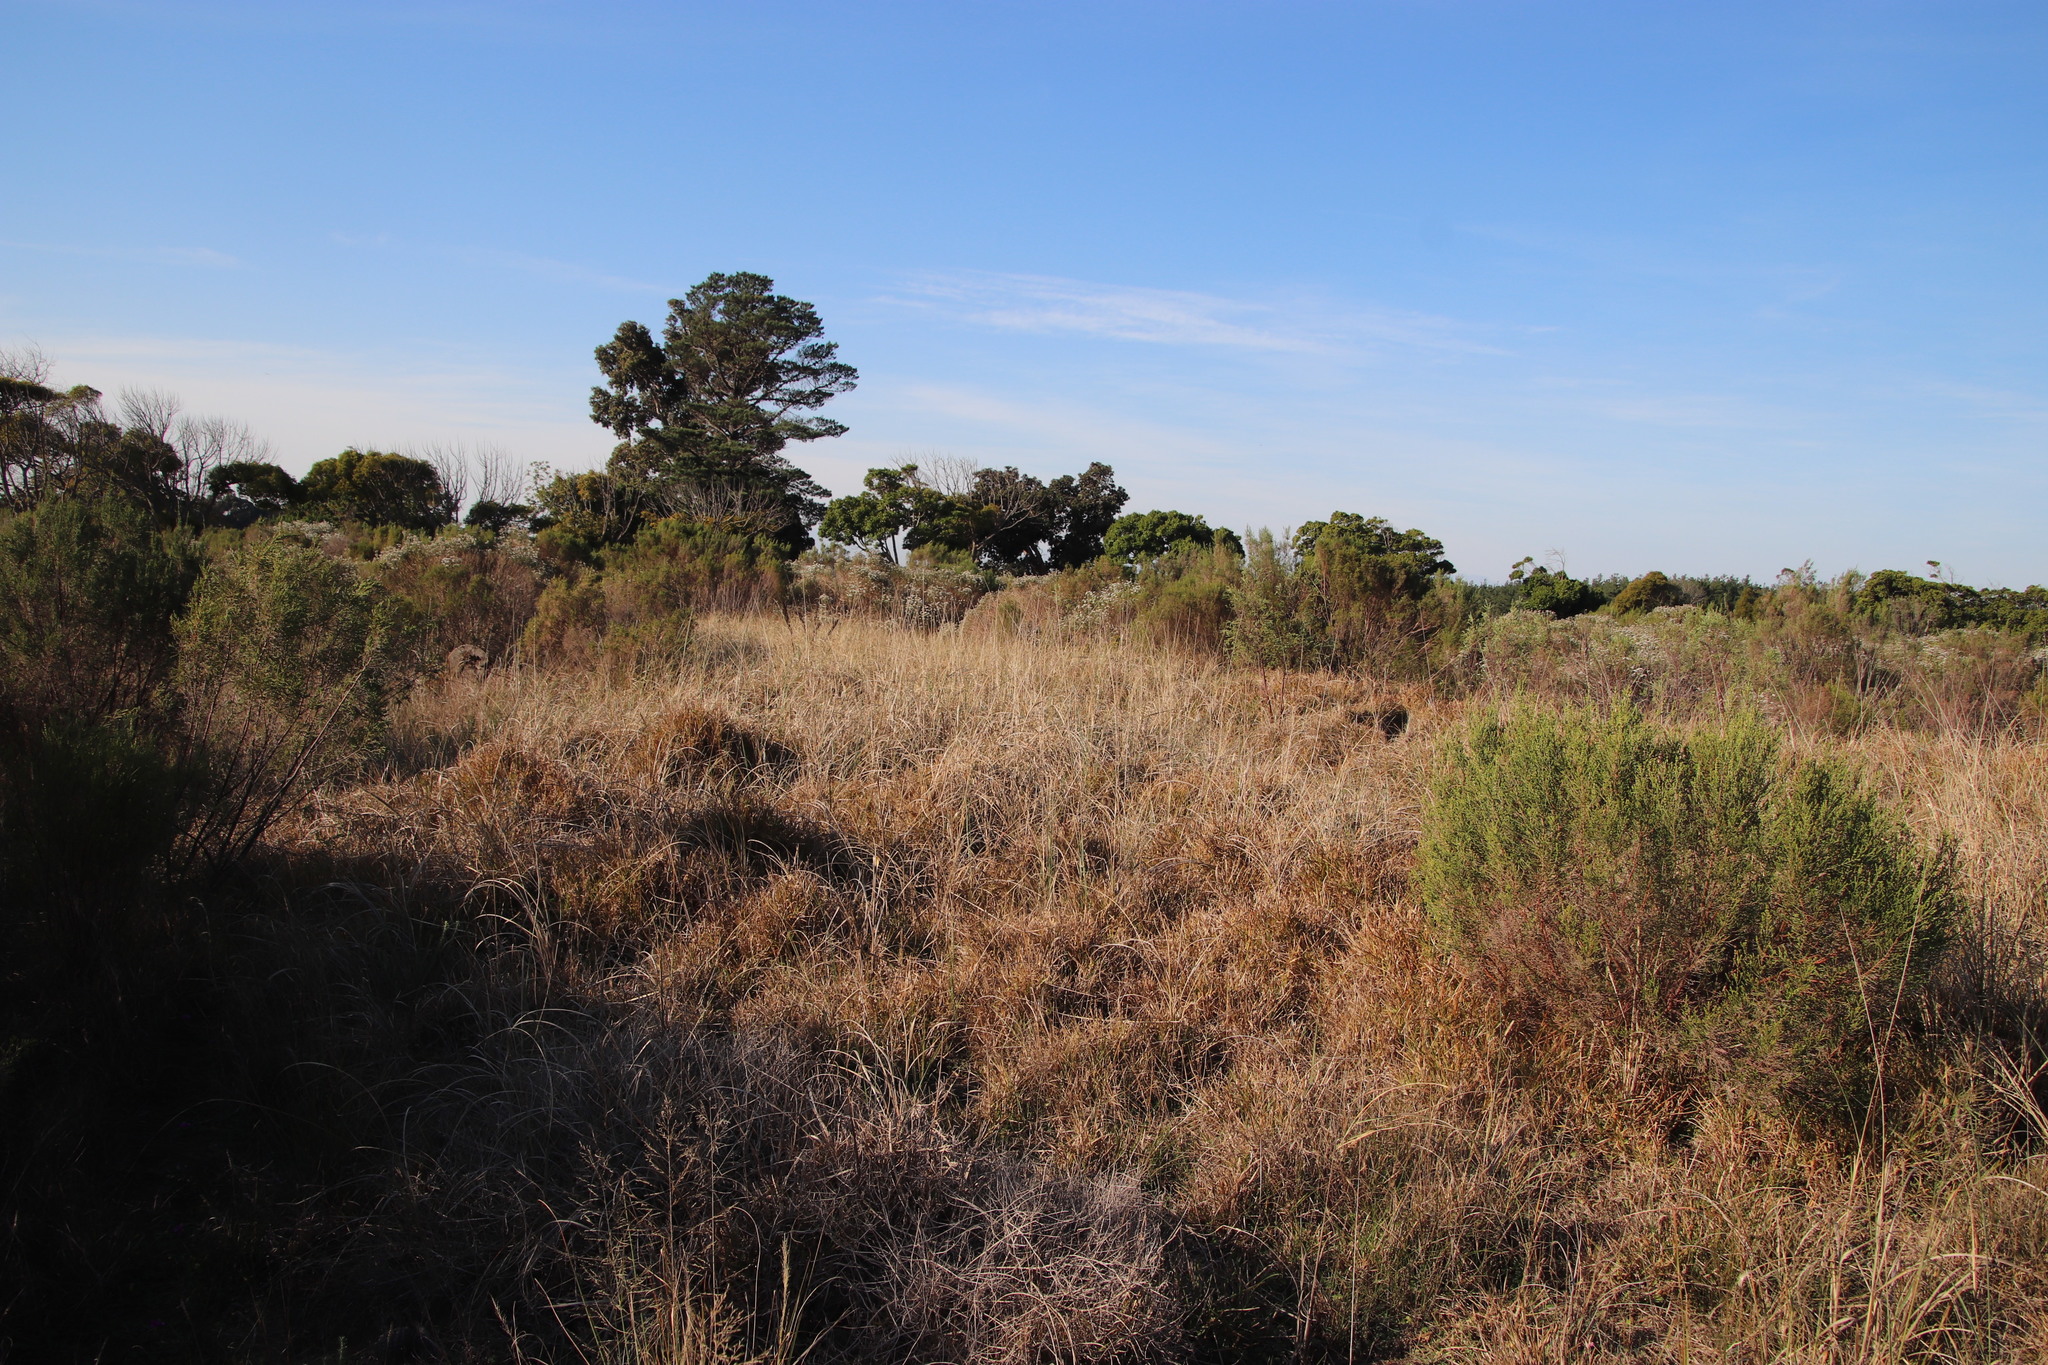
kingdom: Plantae
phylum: Tracheophyta
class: Liliopsida
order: Poales
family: Poaceae
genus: Cenchrus
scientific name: Cenchrus caudatus
